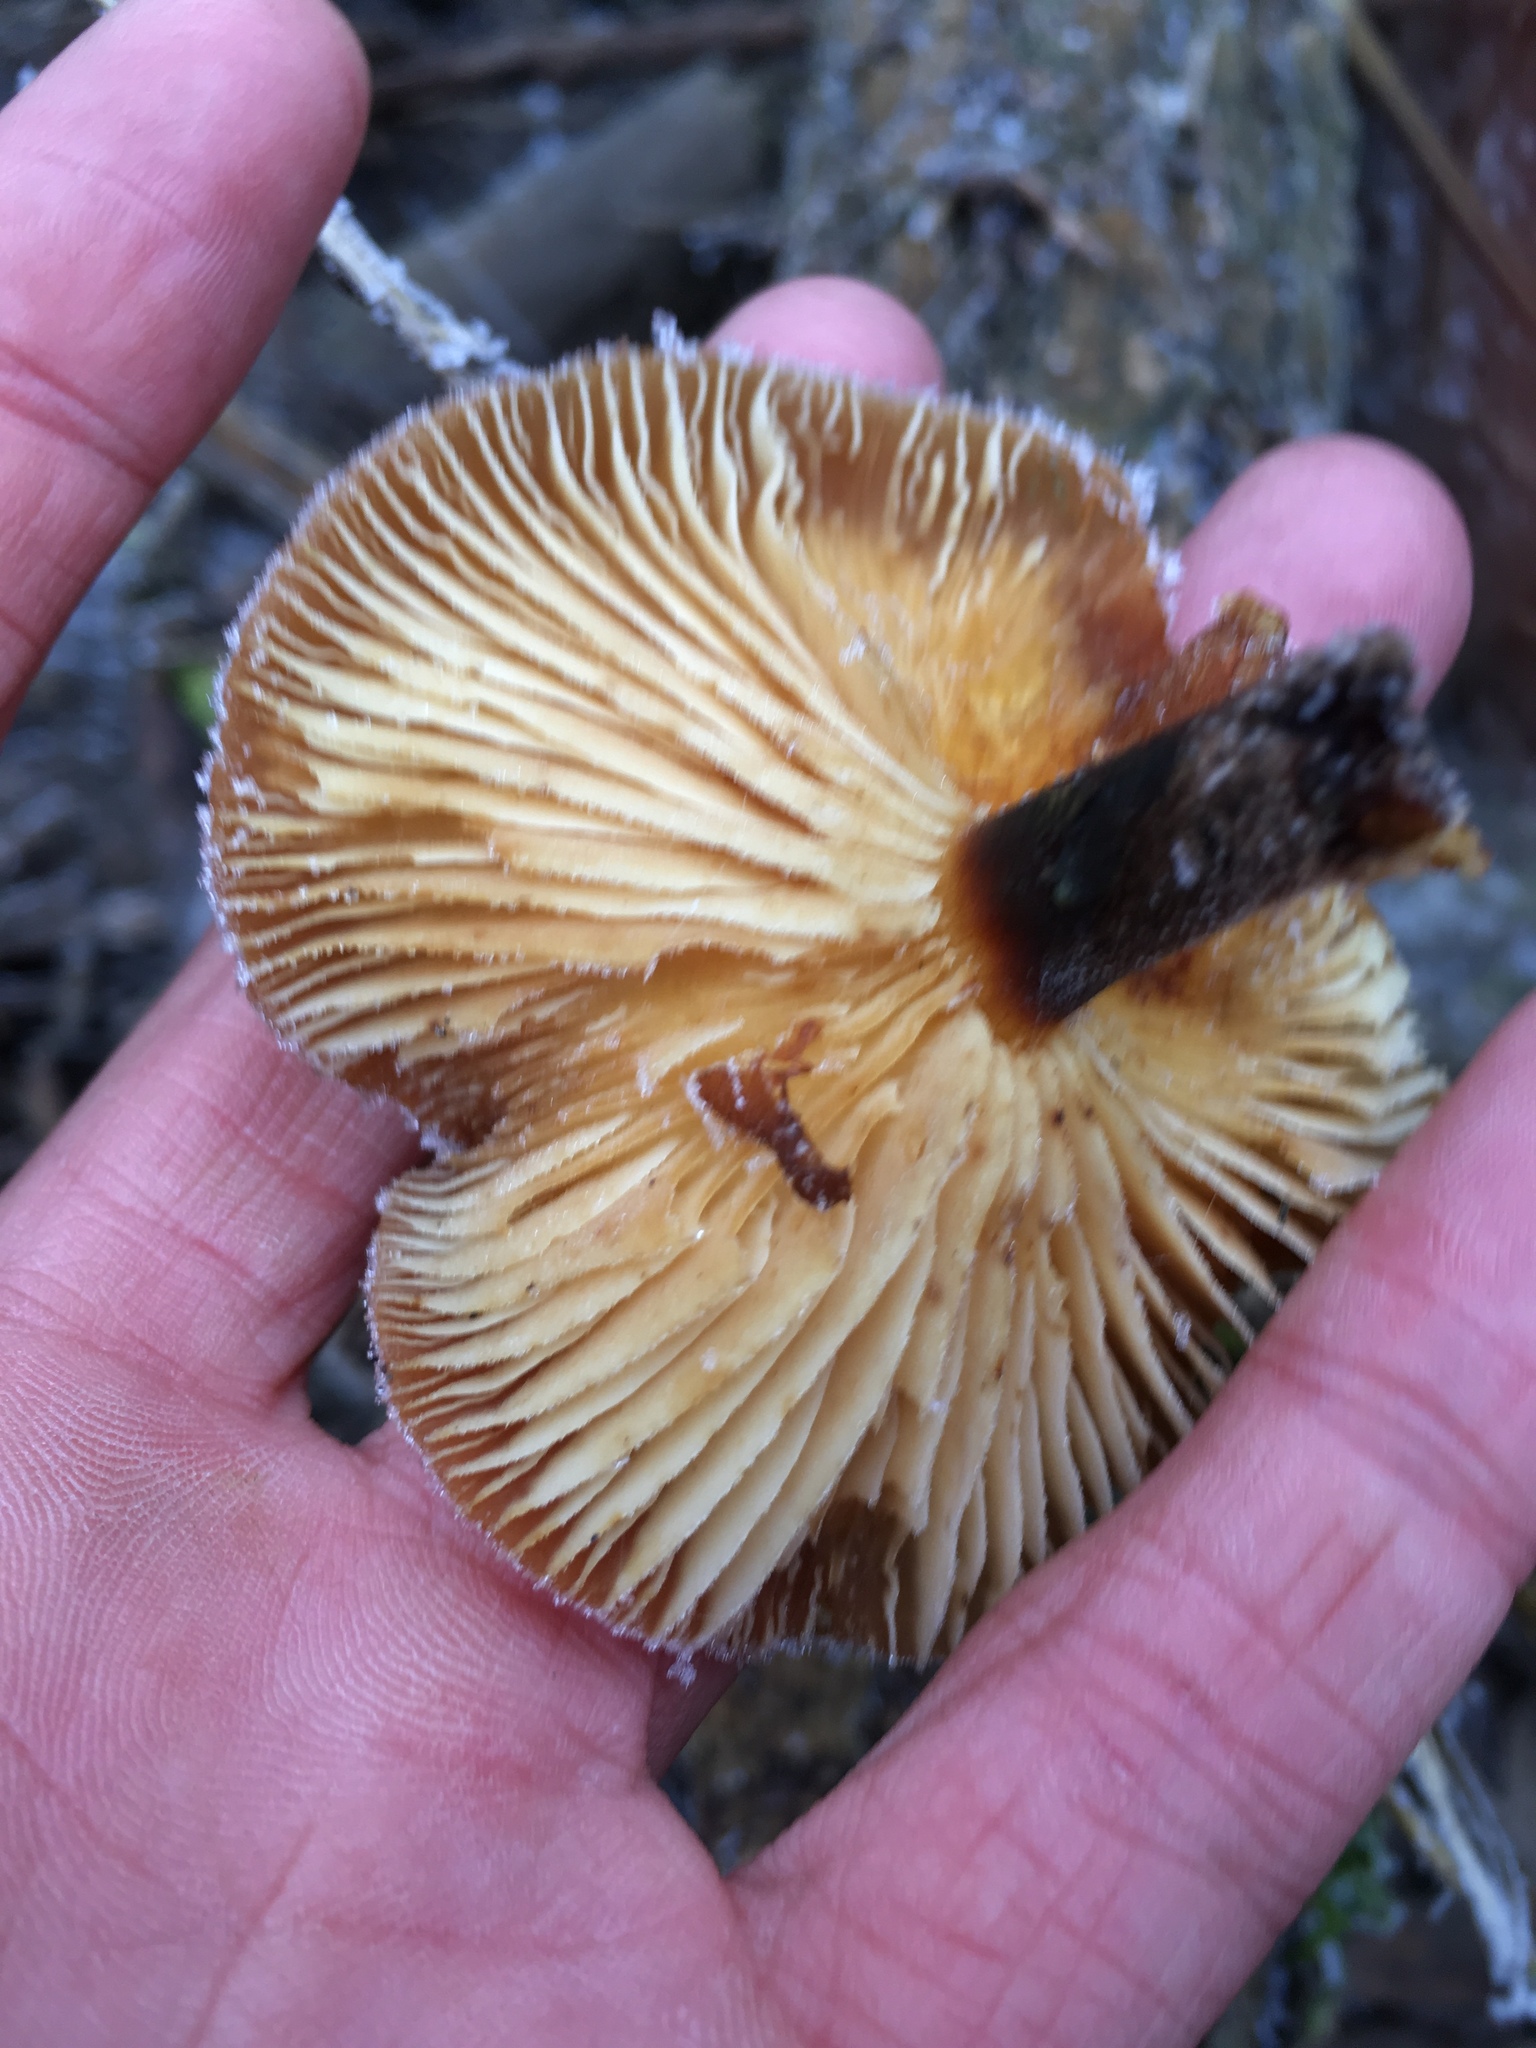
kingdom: Fungi
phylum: Basidiomycota
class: Agaricomycetes
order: Agaricales
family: Physalacriaceae
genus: Flammulina
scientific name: Flammulina
